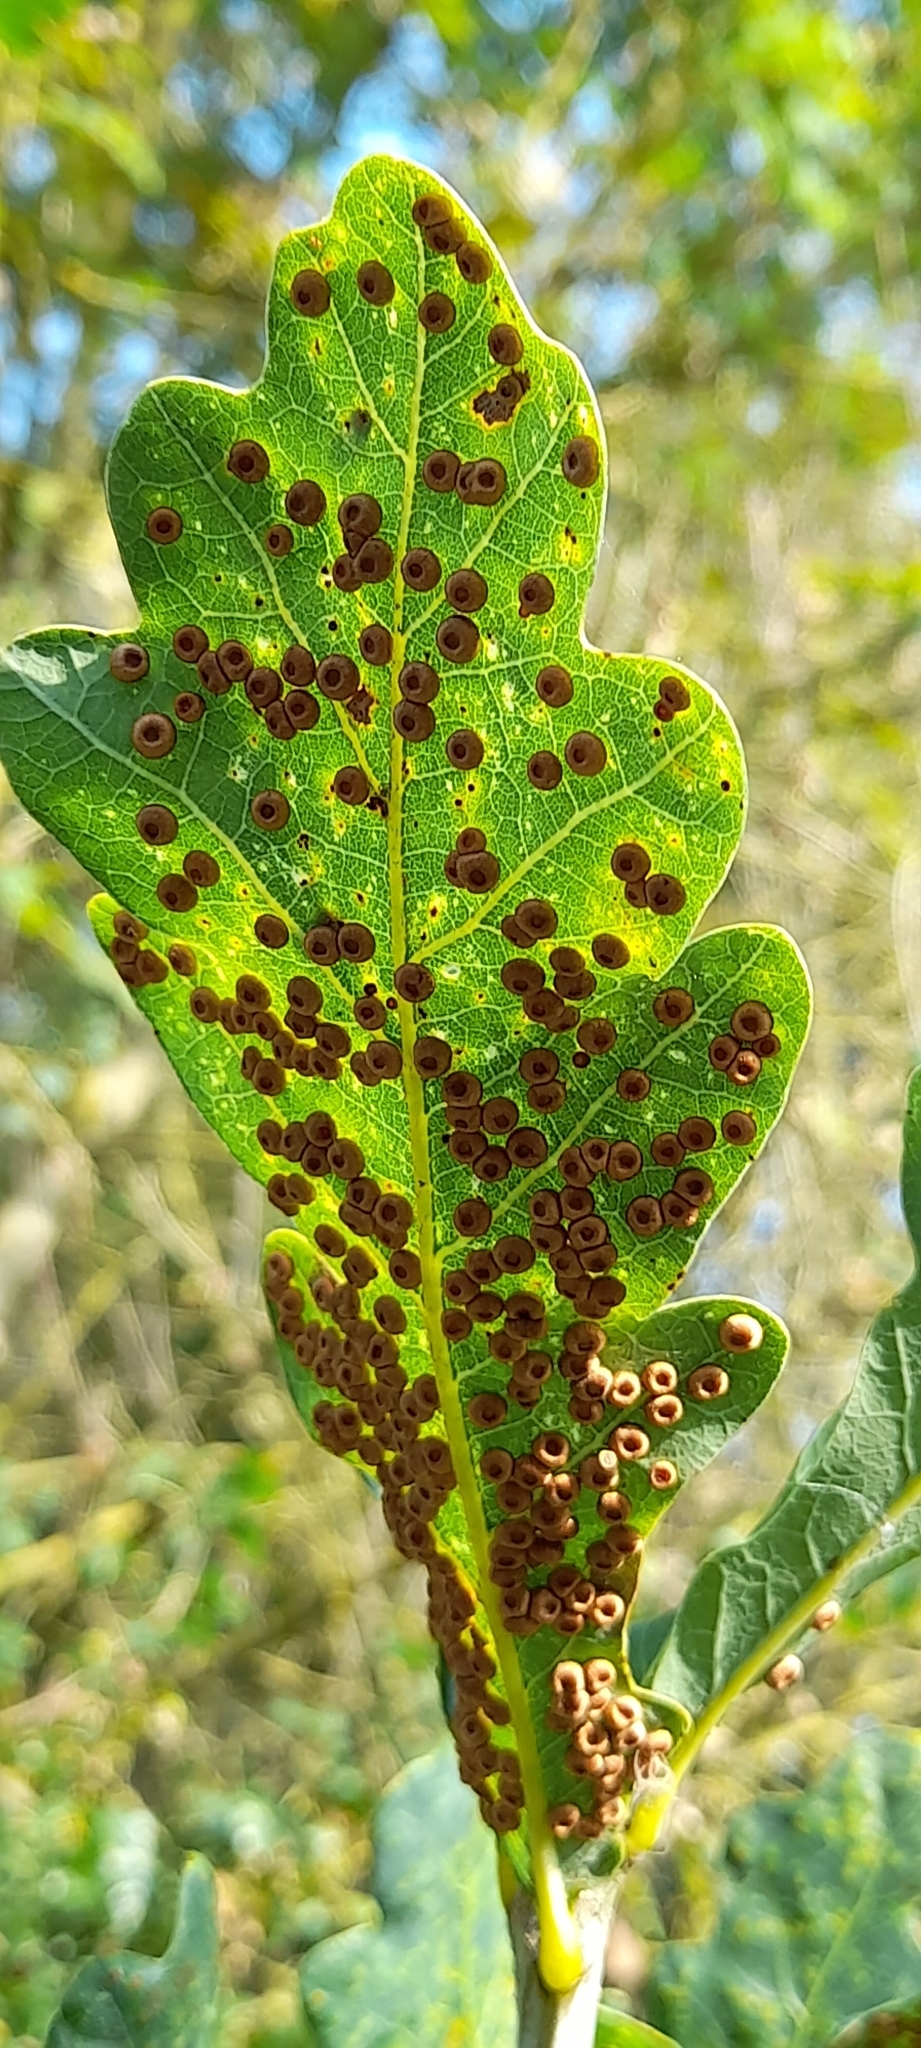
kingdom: Animalia
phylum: Arthropoda
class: Insecta
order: Hymenoptera
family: Cynipidae
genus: Neuroterus
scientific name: Neuroterus numismalis
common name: Silk-button spangle gall
